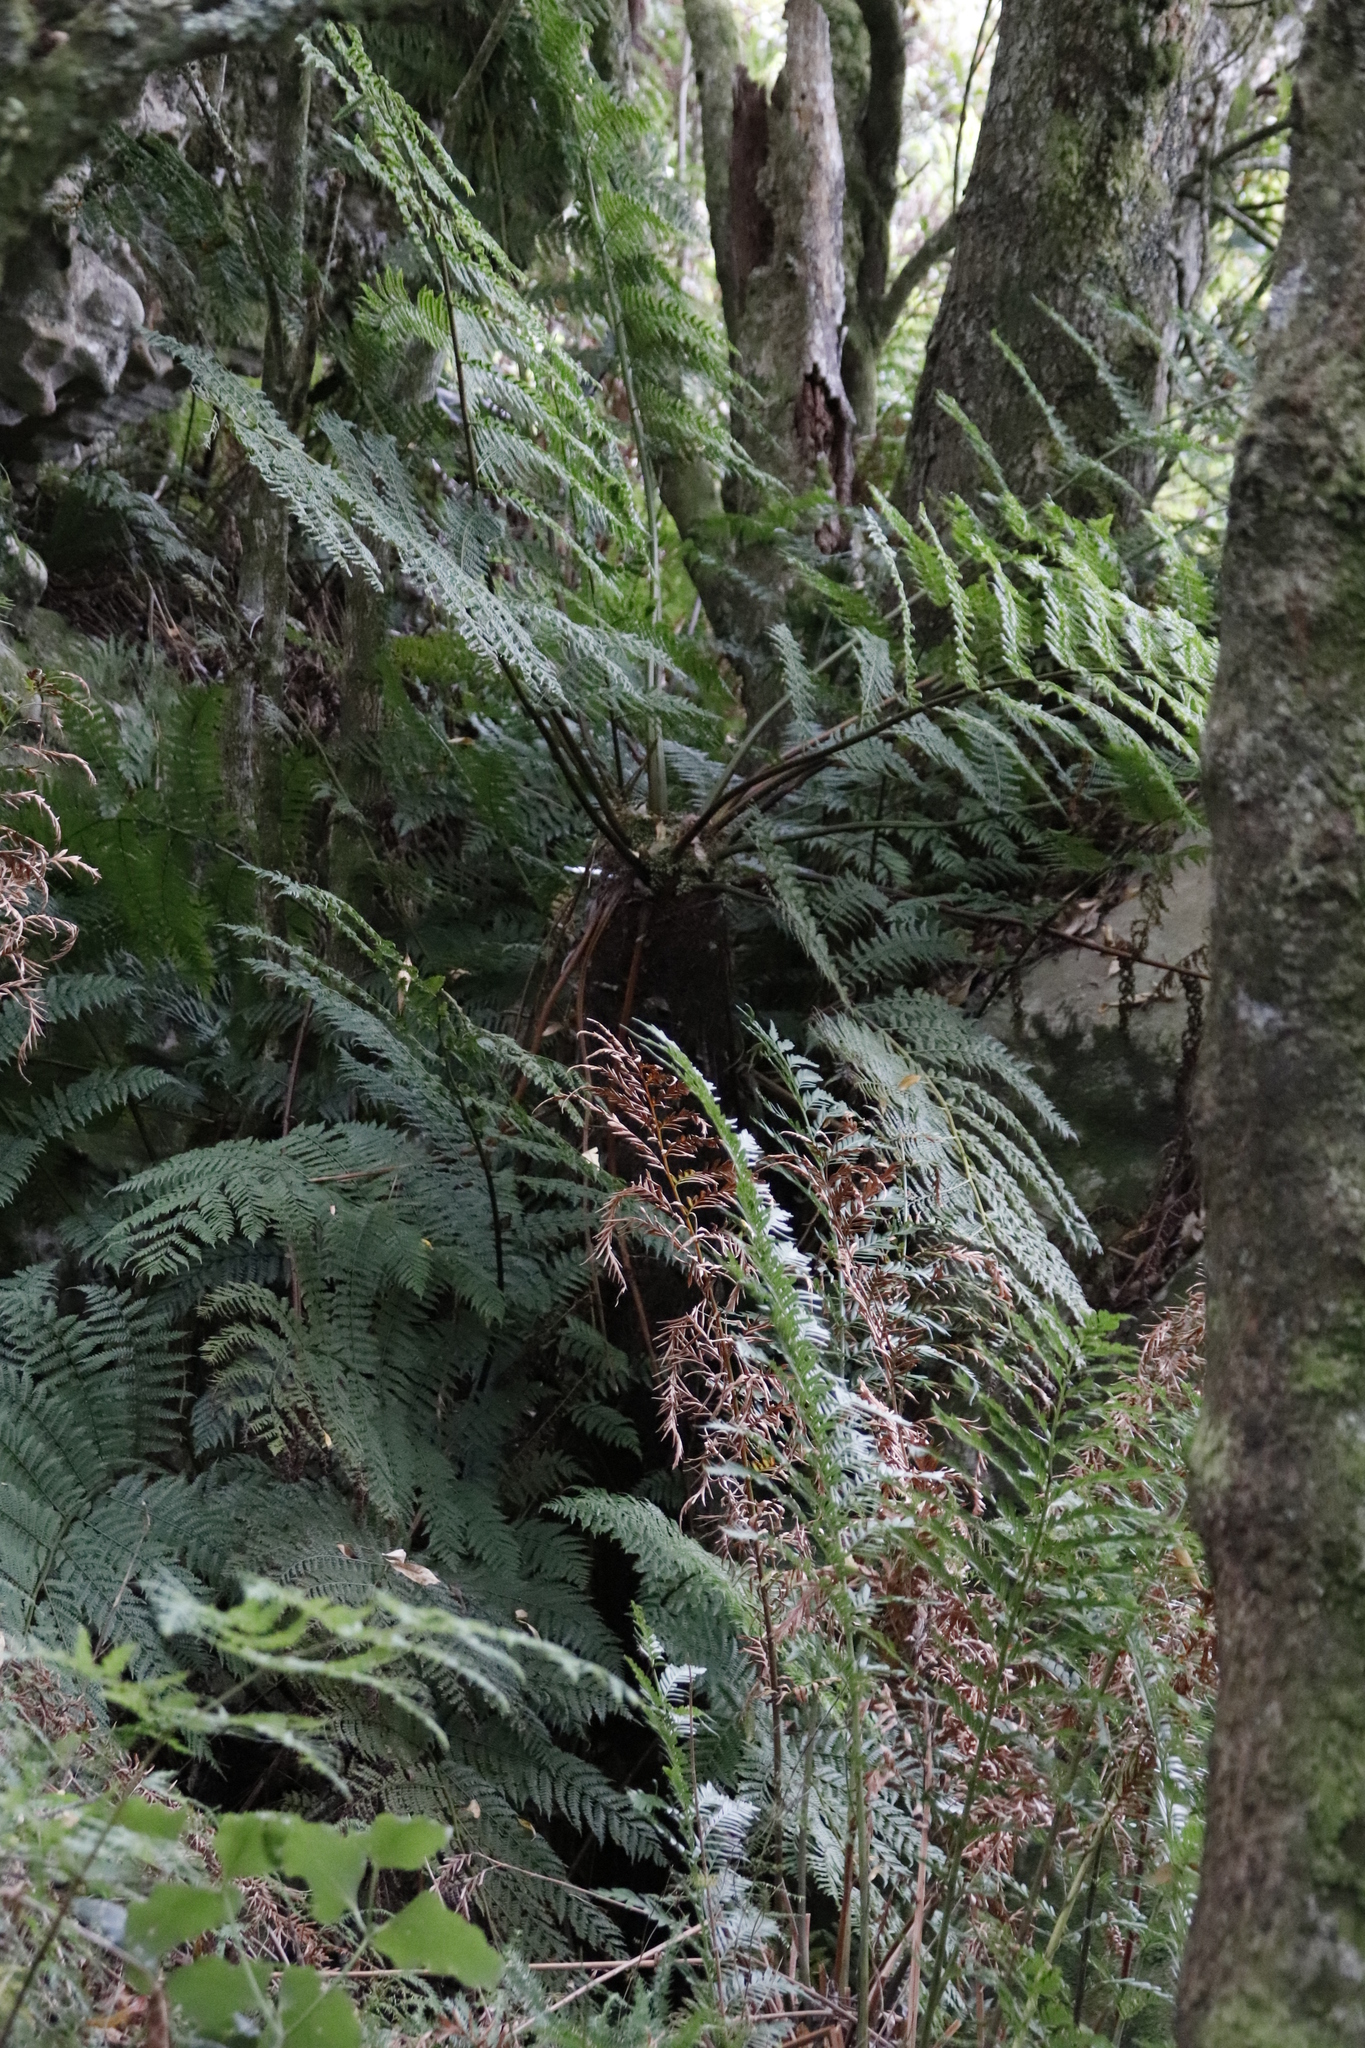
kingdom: Plantae
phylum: Tracheophyta
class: Polypodiopsida
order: Cyatheales
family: Cyatheaceae
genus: Gymnosphaera
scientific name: Gymnosphaera capensis
